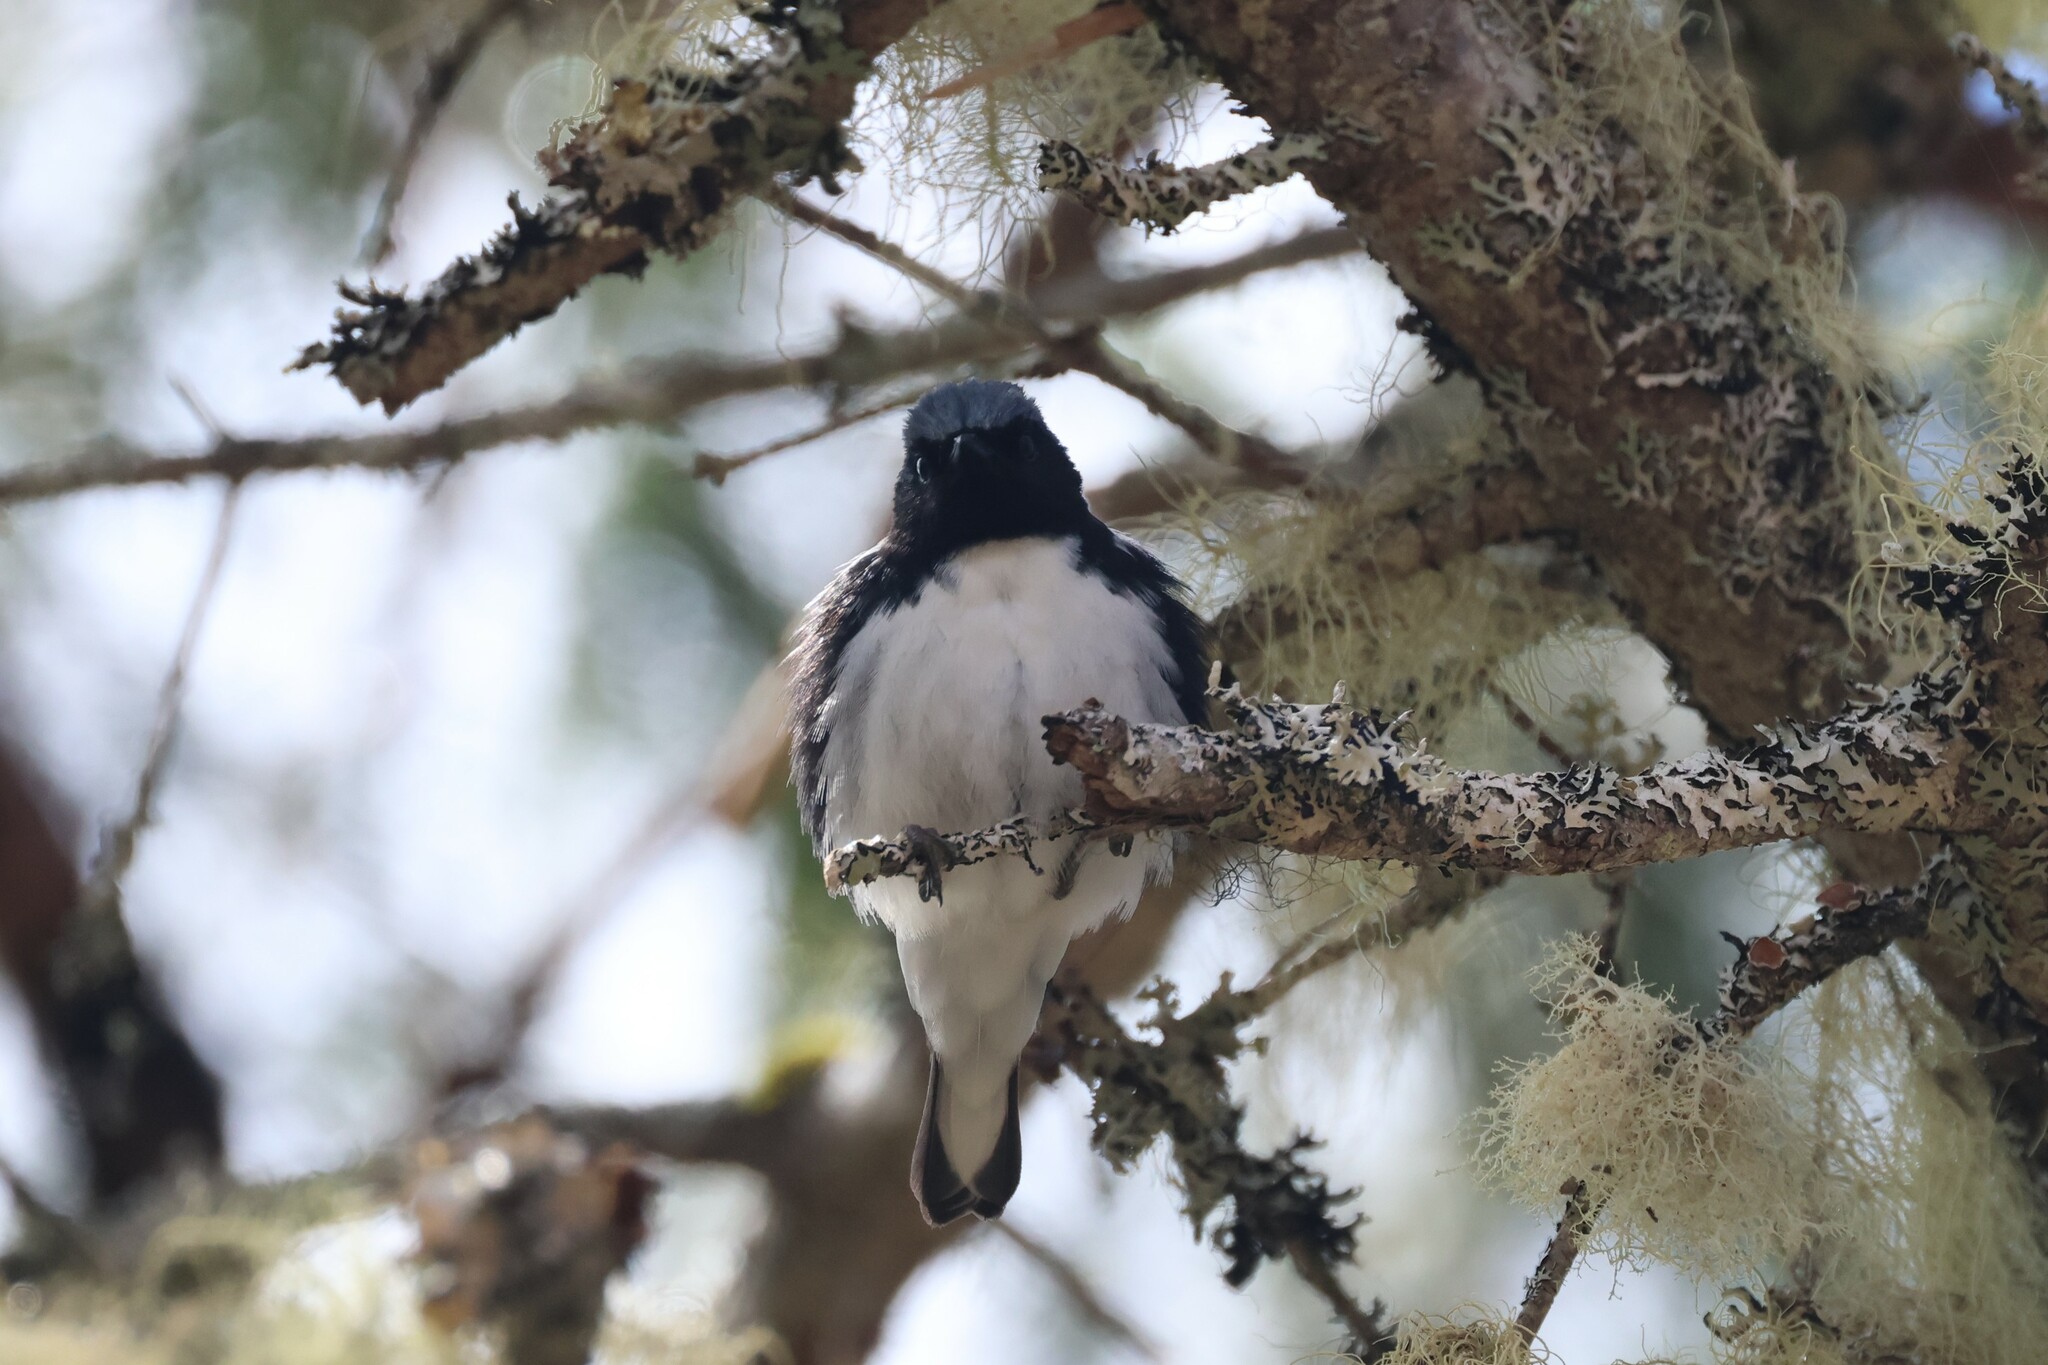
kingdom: Animalia
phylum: Chordata
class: Aves
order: Passeriformes
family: Parulidae
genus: Setophaga
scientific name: Setophaga caerulescens
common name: Black-throated blue warbler
